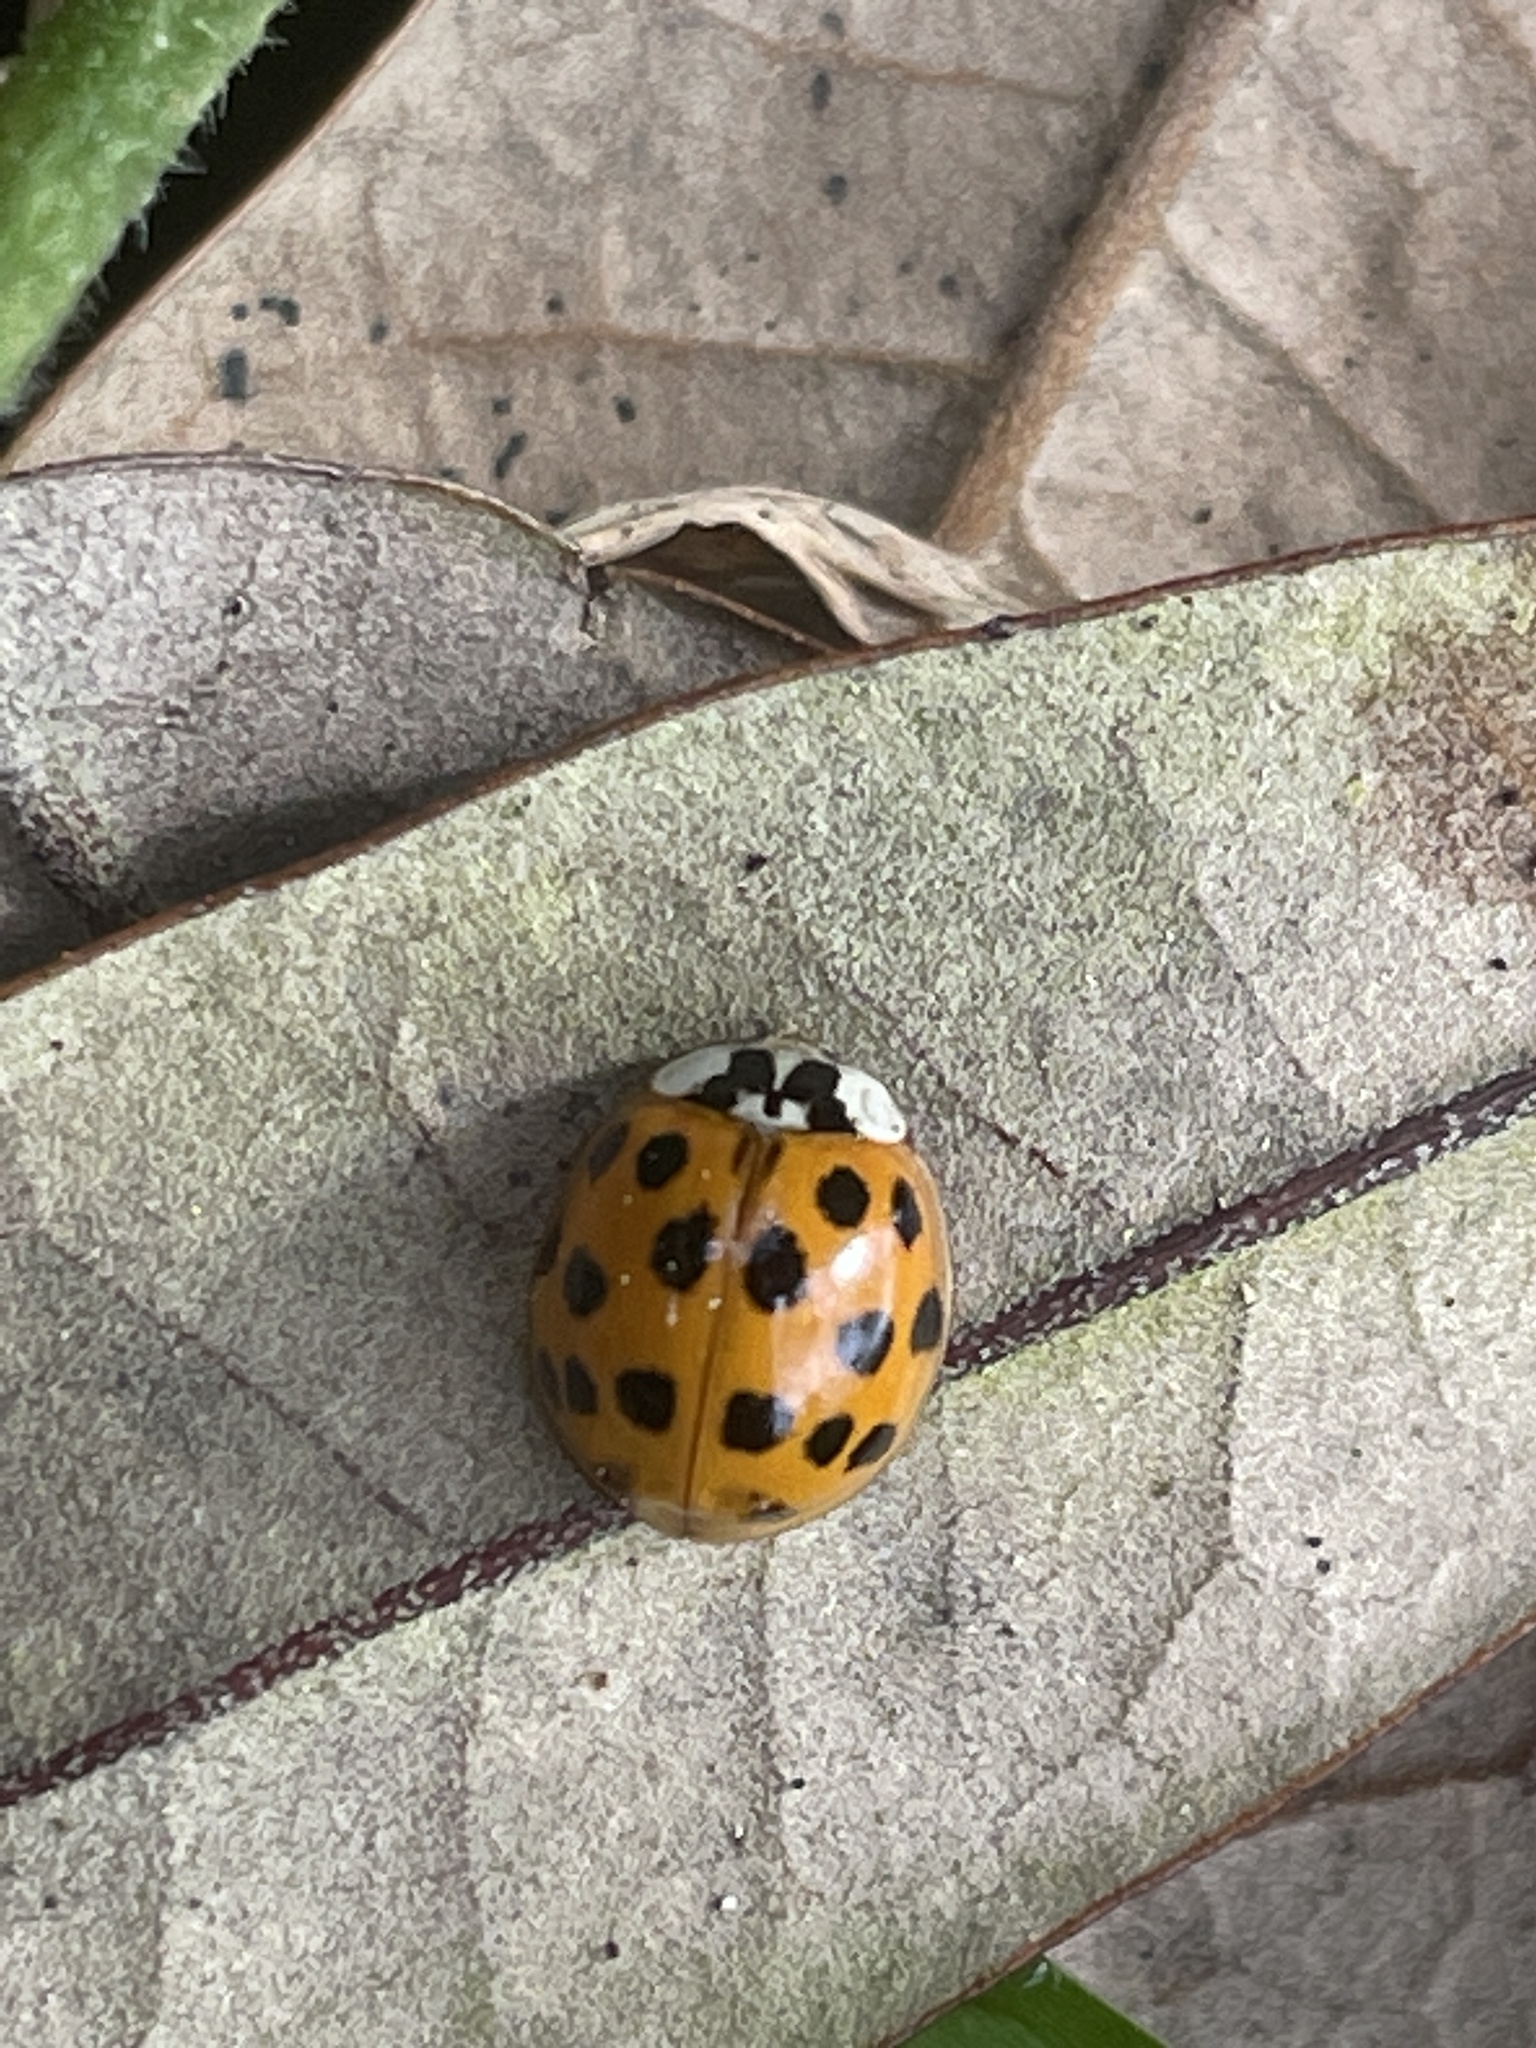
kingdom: Animalia
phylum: Arthropoda
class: Insecta
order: Coleoptera
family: Coccinellidae
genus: Harmonia
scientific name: Harmonia axyridis
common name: Harlequin ladybird
